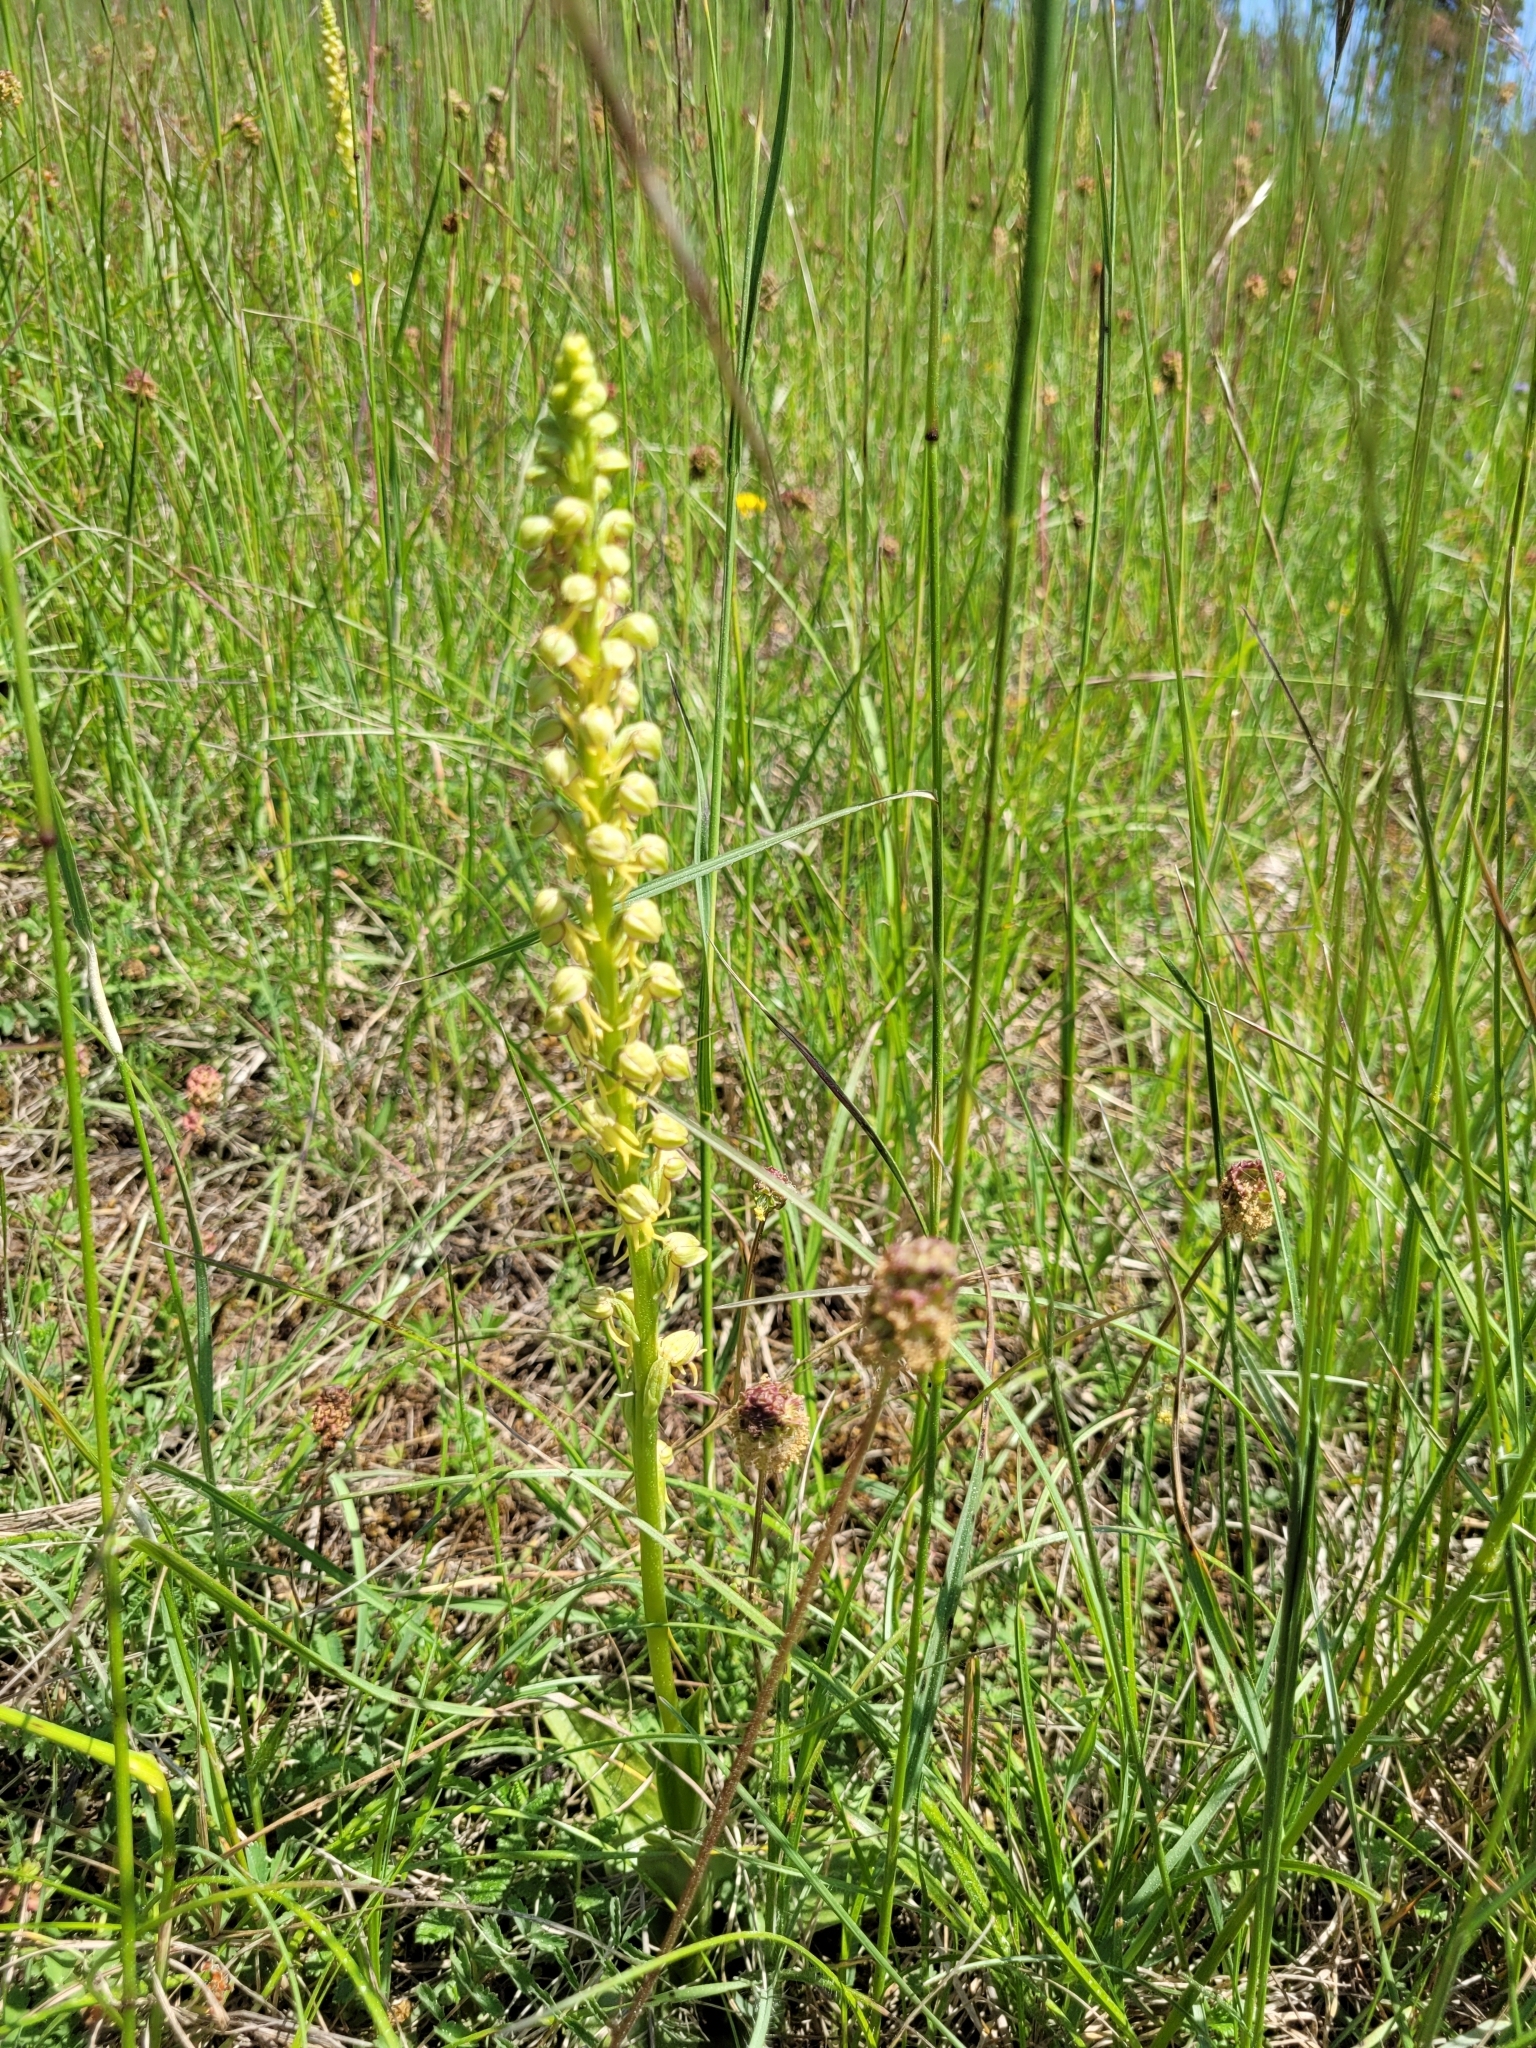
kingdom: Plantae
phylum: Tracheophyta
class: Liliopsida
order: Asparagales
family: Orchidaceae
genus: Orchis
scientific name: Orchis anthropophora
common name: Man orchid
